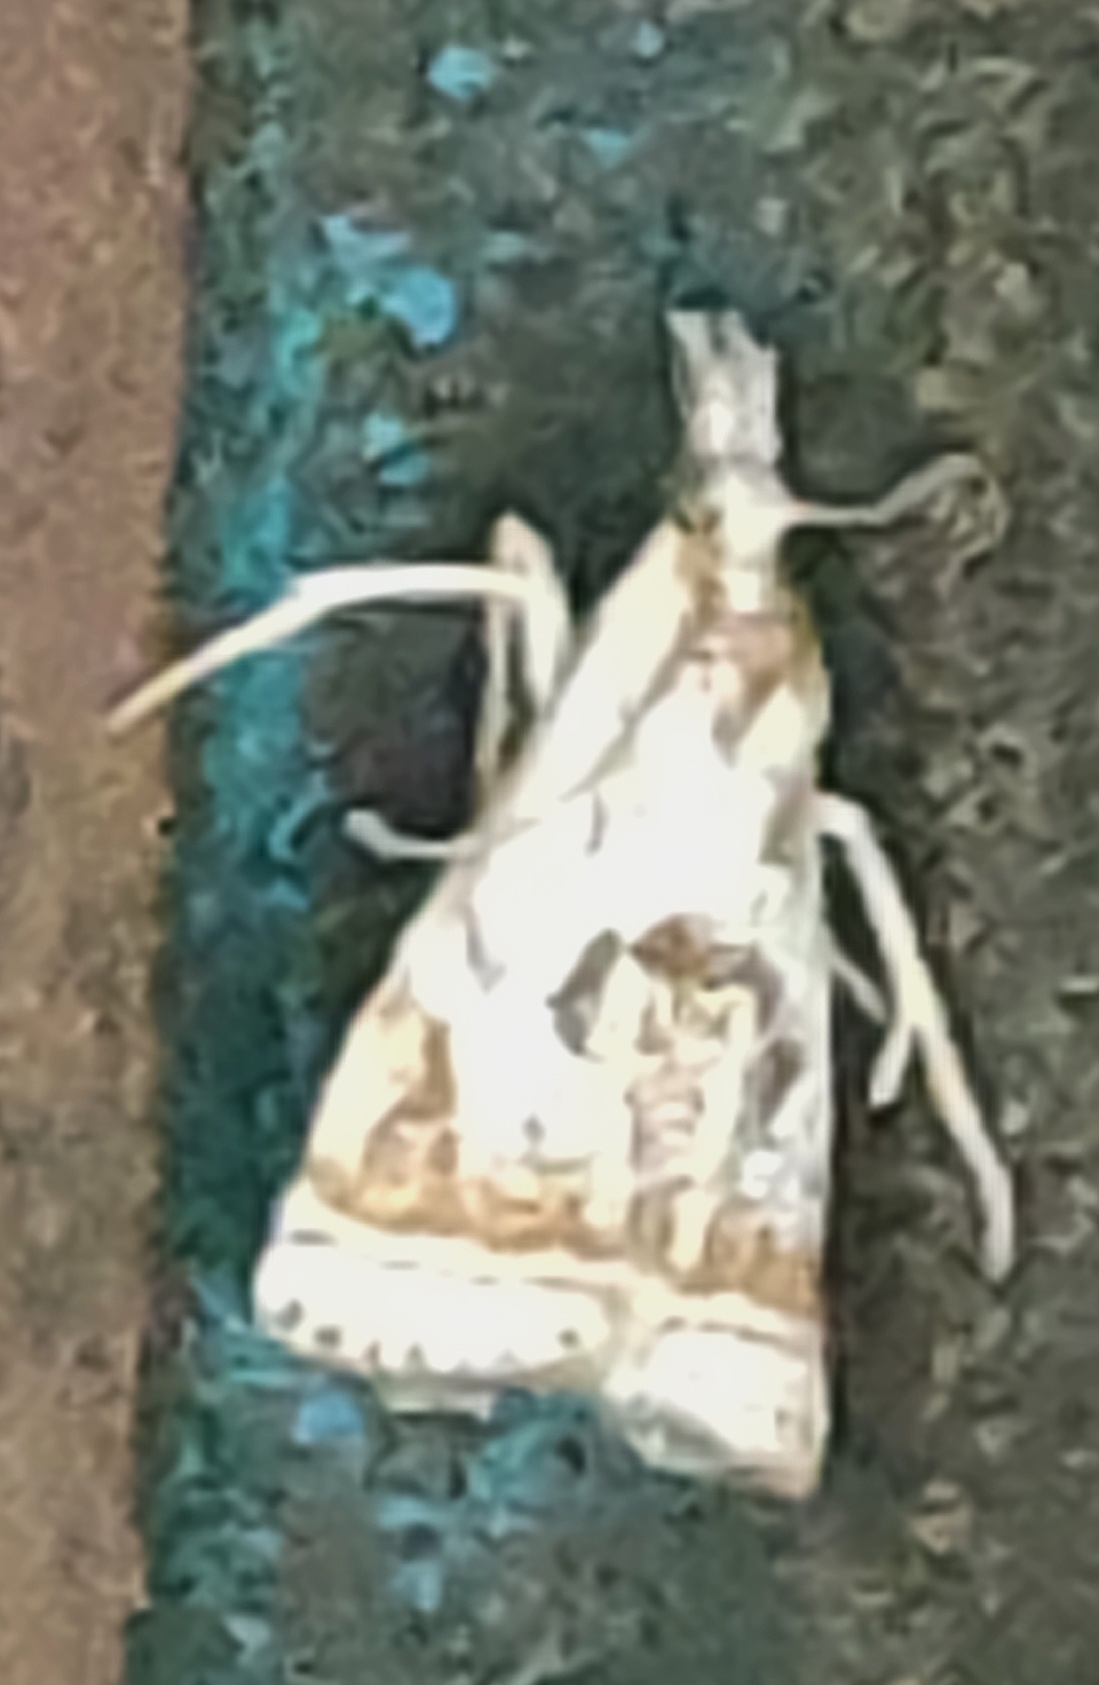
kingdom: Animalia
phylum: Arthropoda
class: Insecta
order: Lepidoptera
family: Crambidae
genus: Microcrambus
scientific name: Microcrambus elegans
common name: Elegant grass-veneer
